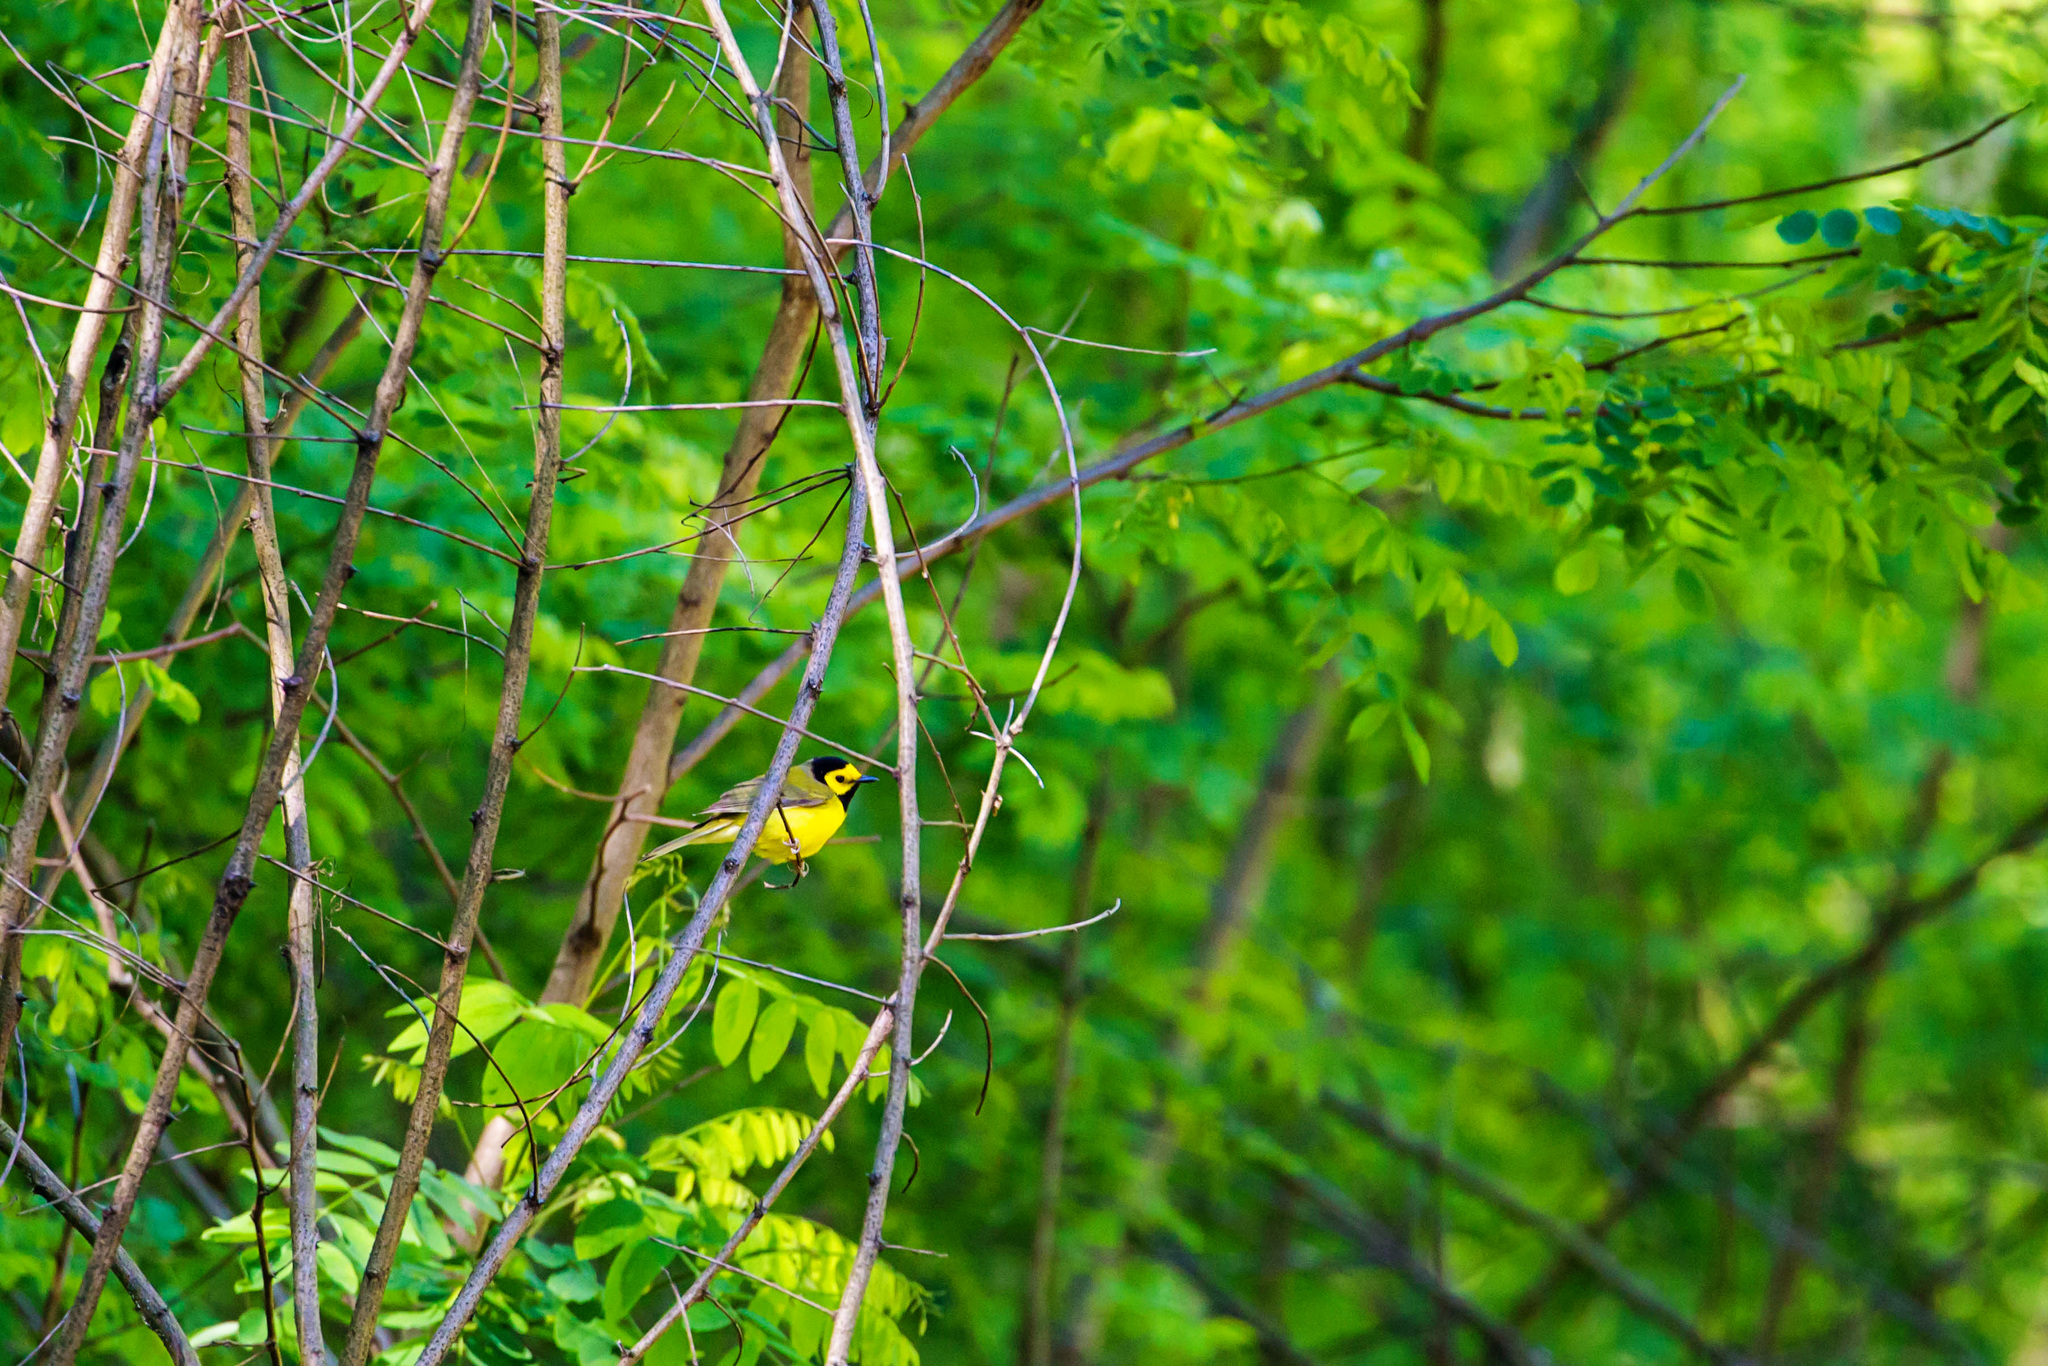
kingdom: Animalia
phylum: Chordata
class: Aves
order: Passeriformes
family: Parulidae
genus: Setophaga
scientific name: Setophaga citrina
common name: Hooded warbler
